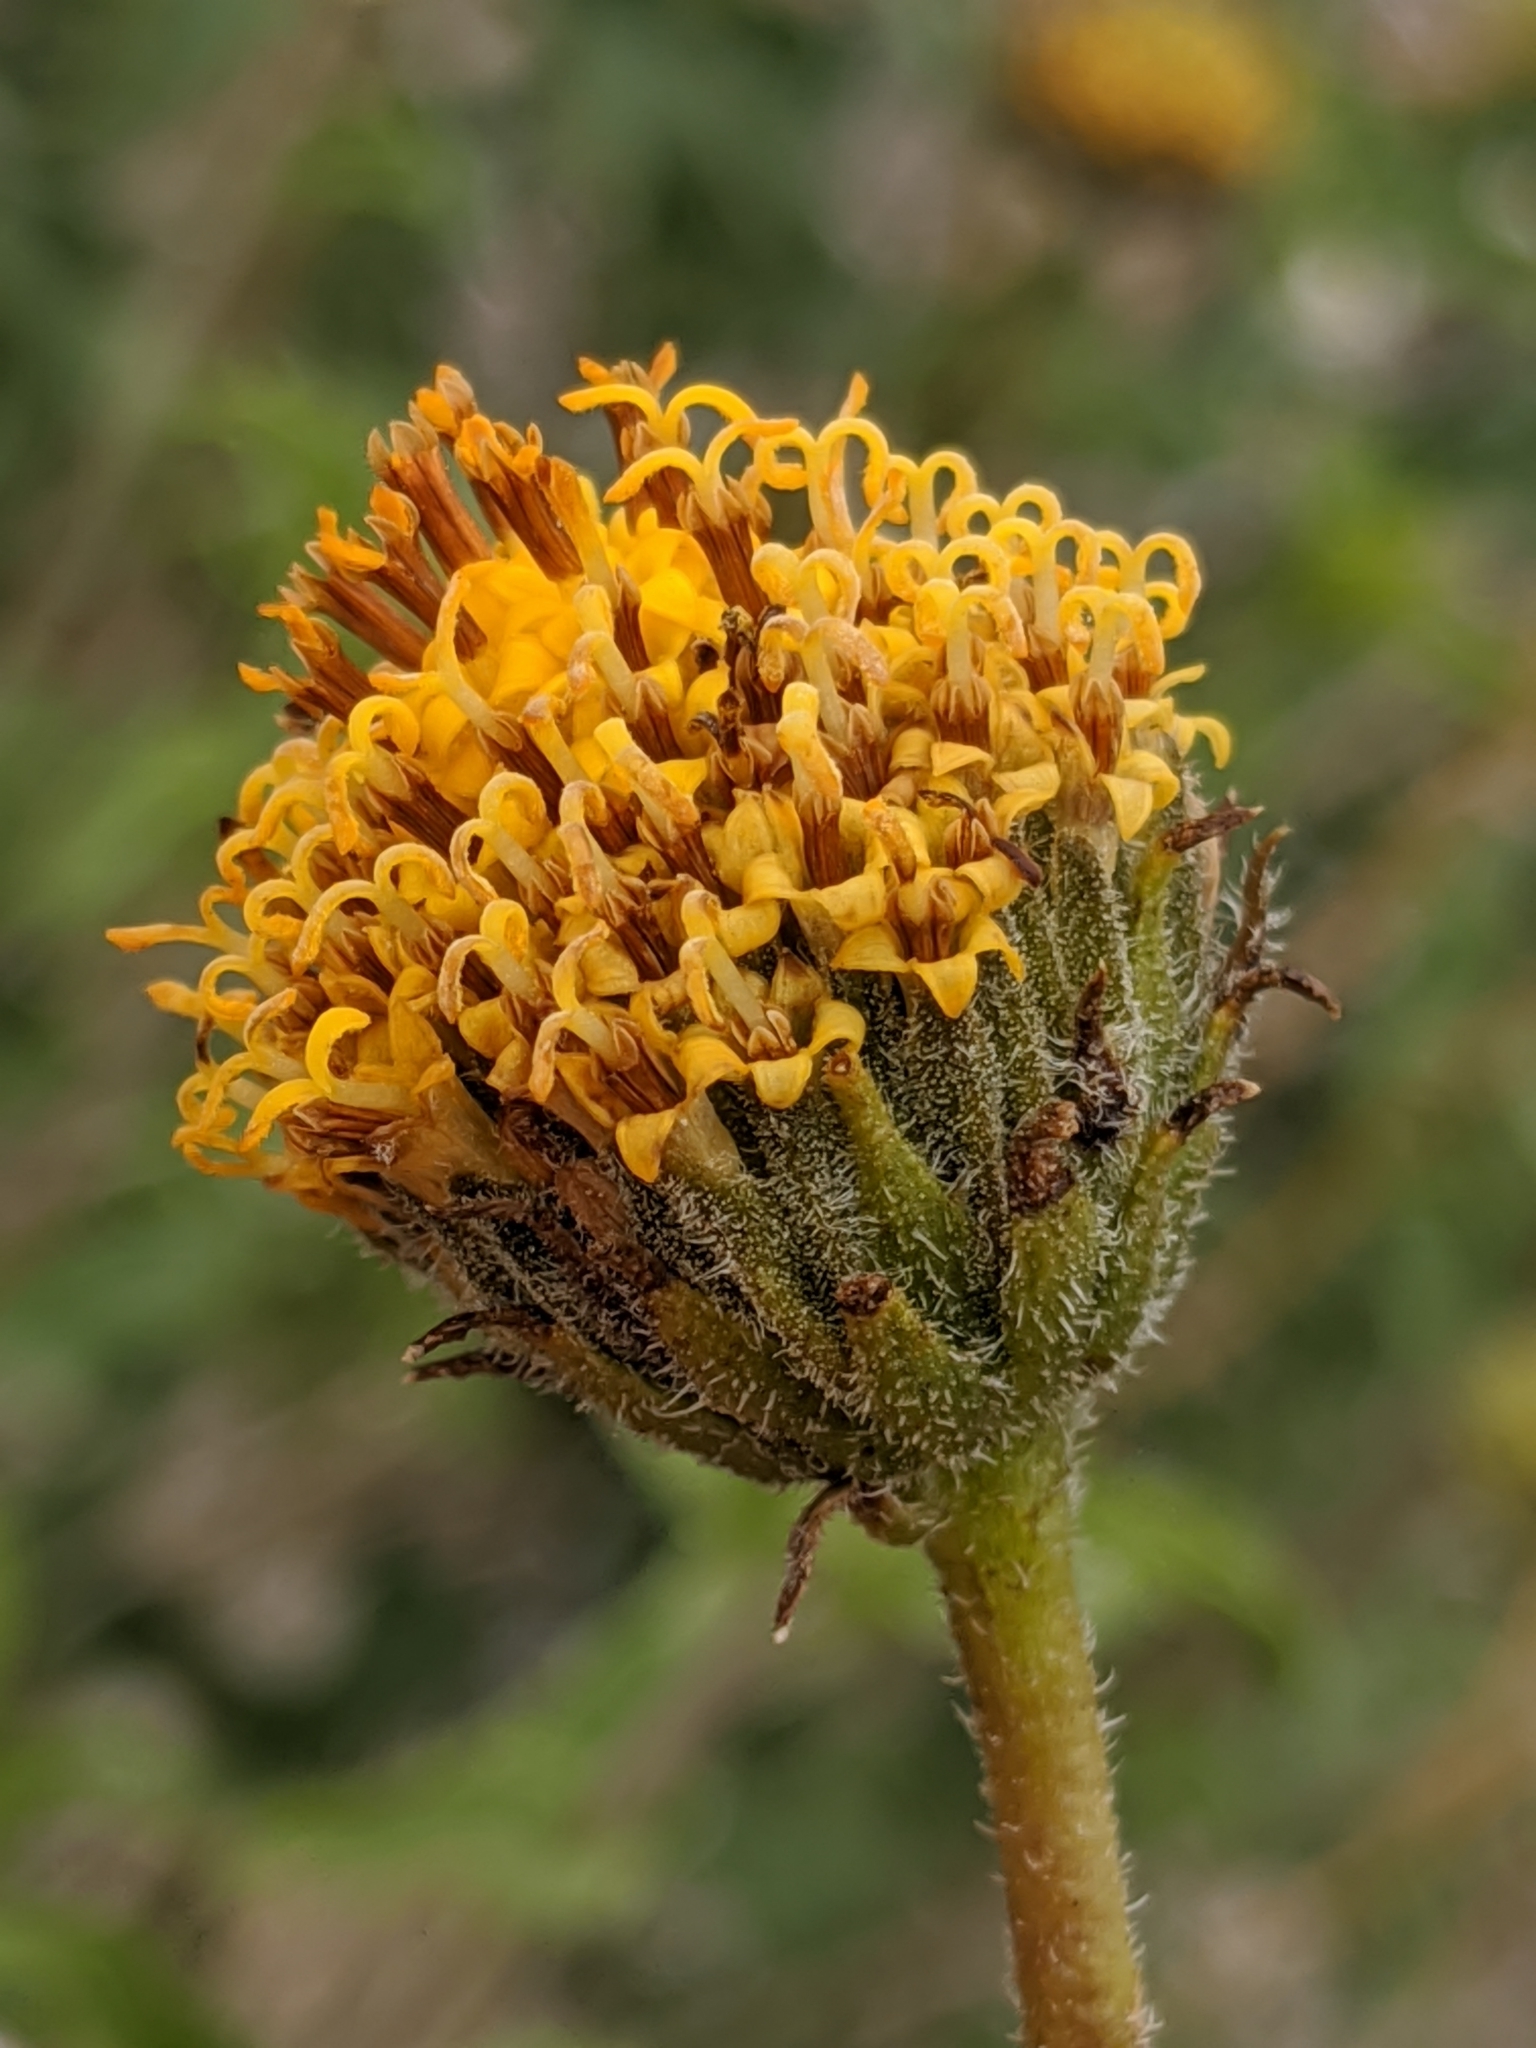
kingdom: Plantae
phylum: Tracheophyta
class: Magnoliopsida
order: Asterales
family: Asteraceae
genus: Encelia
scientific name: Encelia frutescens
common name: Bush encelia
